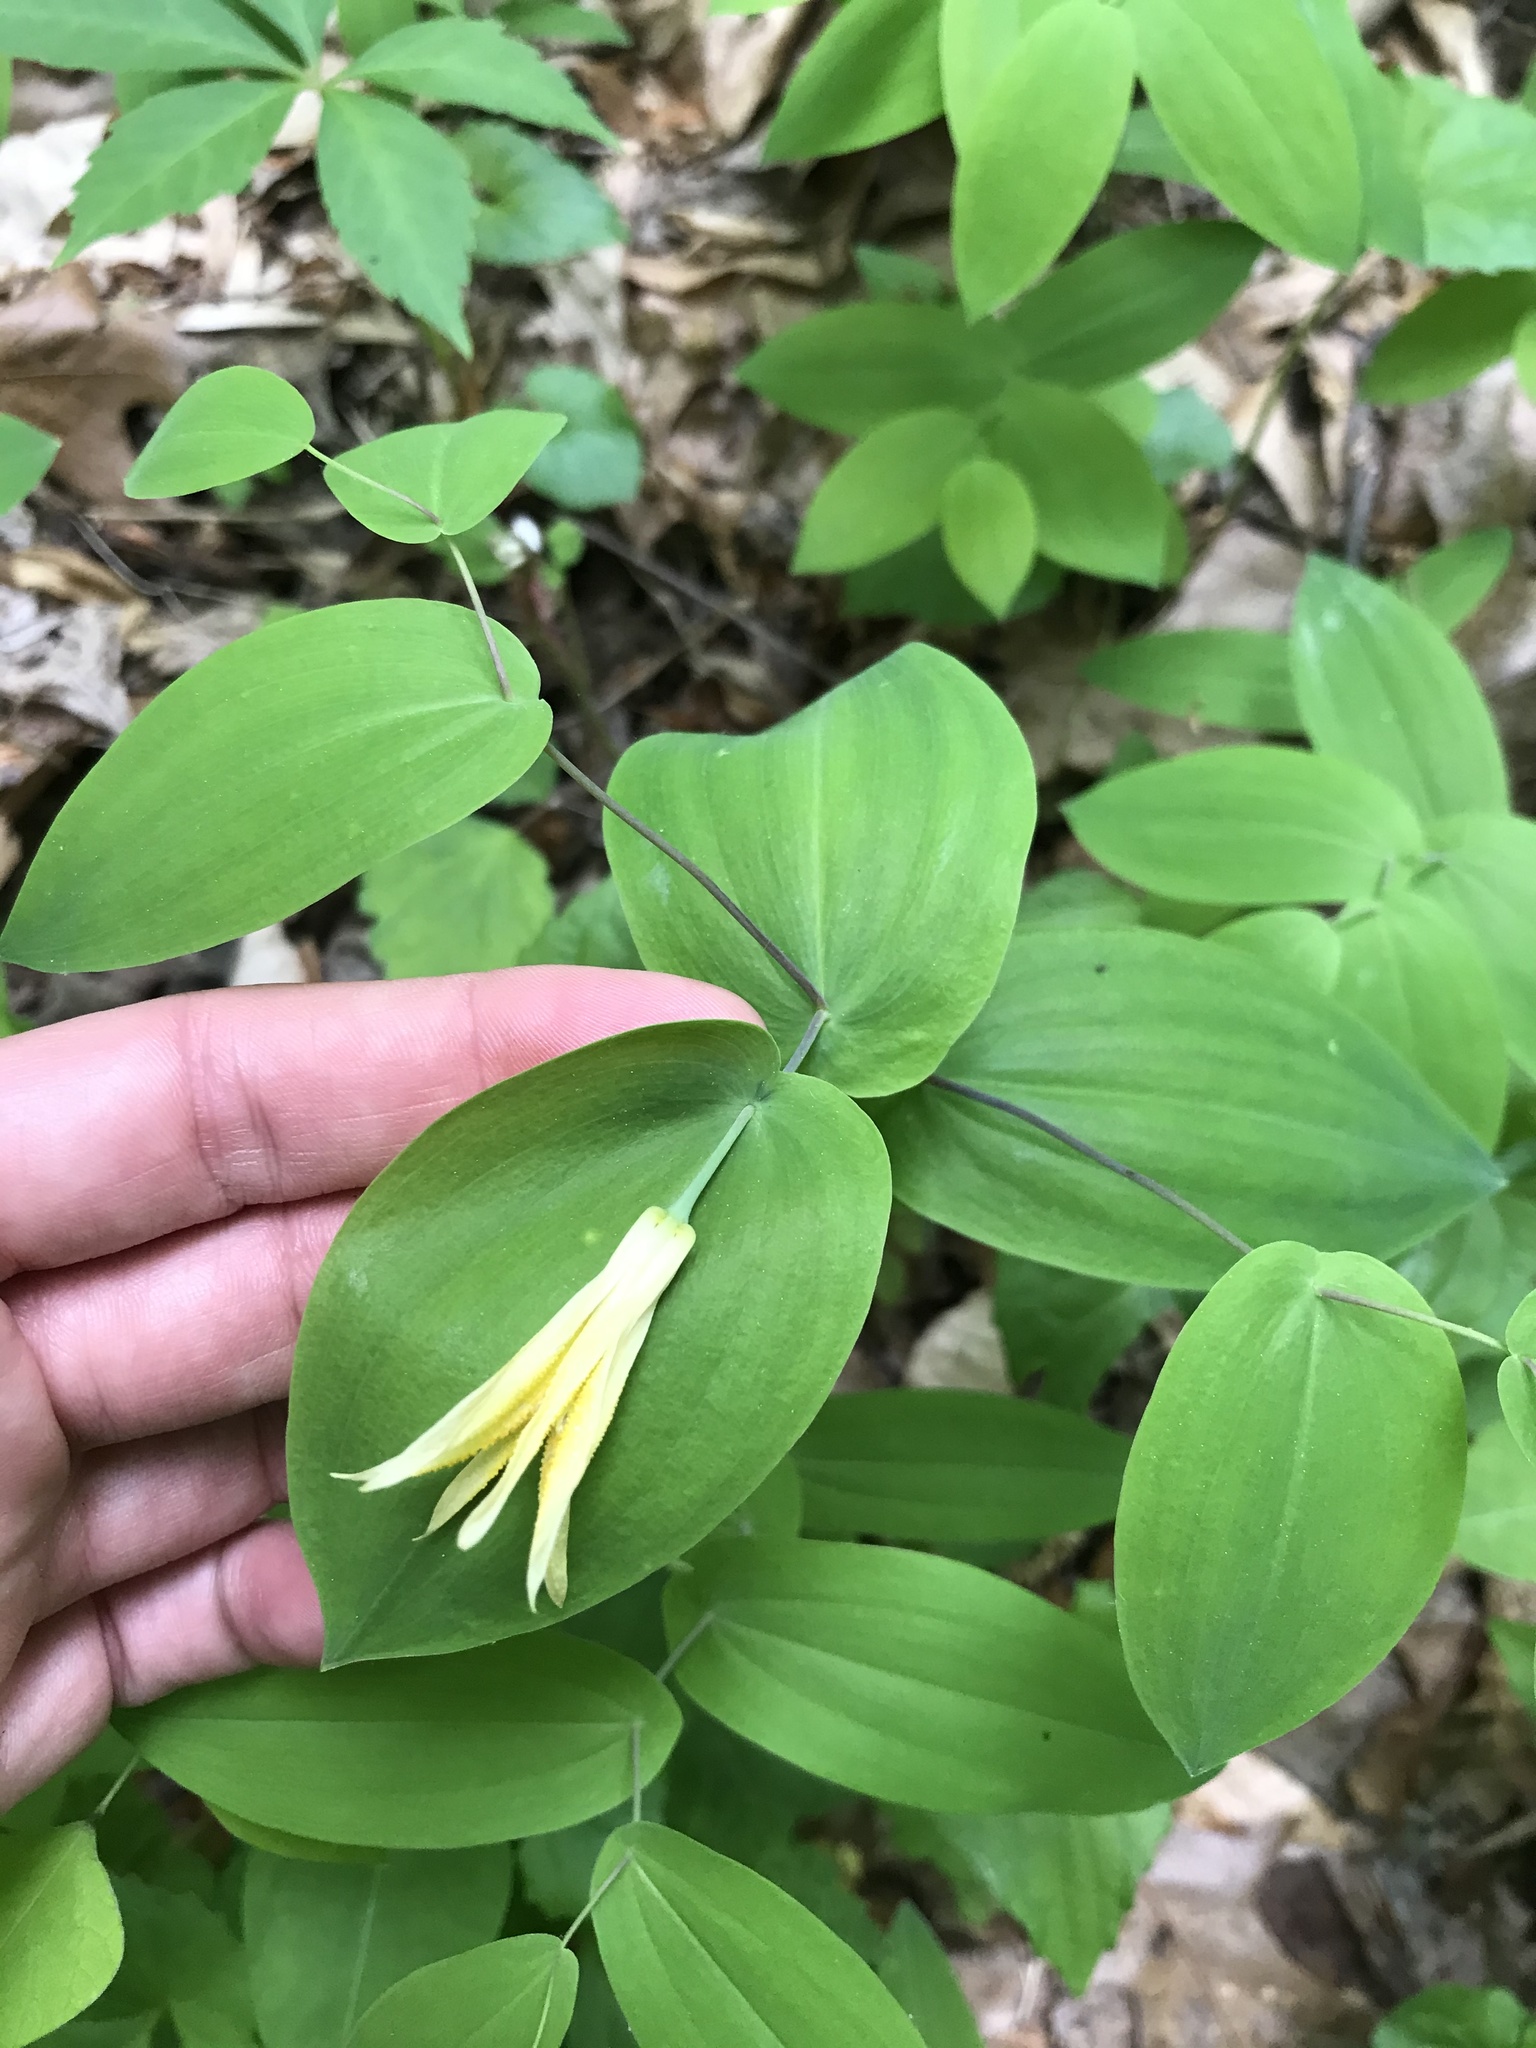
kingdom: Plantae
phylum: Tracheophyta
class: Liliopsida
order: Liliales
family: Colchicaceae
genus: Uvularia
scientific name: Uvularia perfoliata
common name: Perfoliate bellwort
